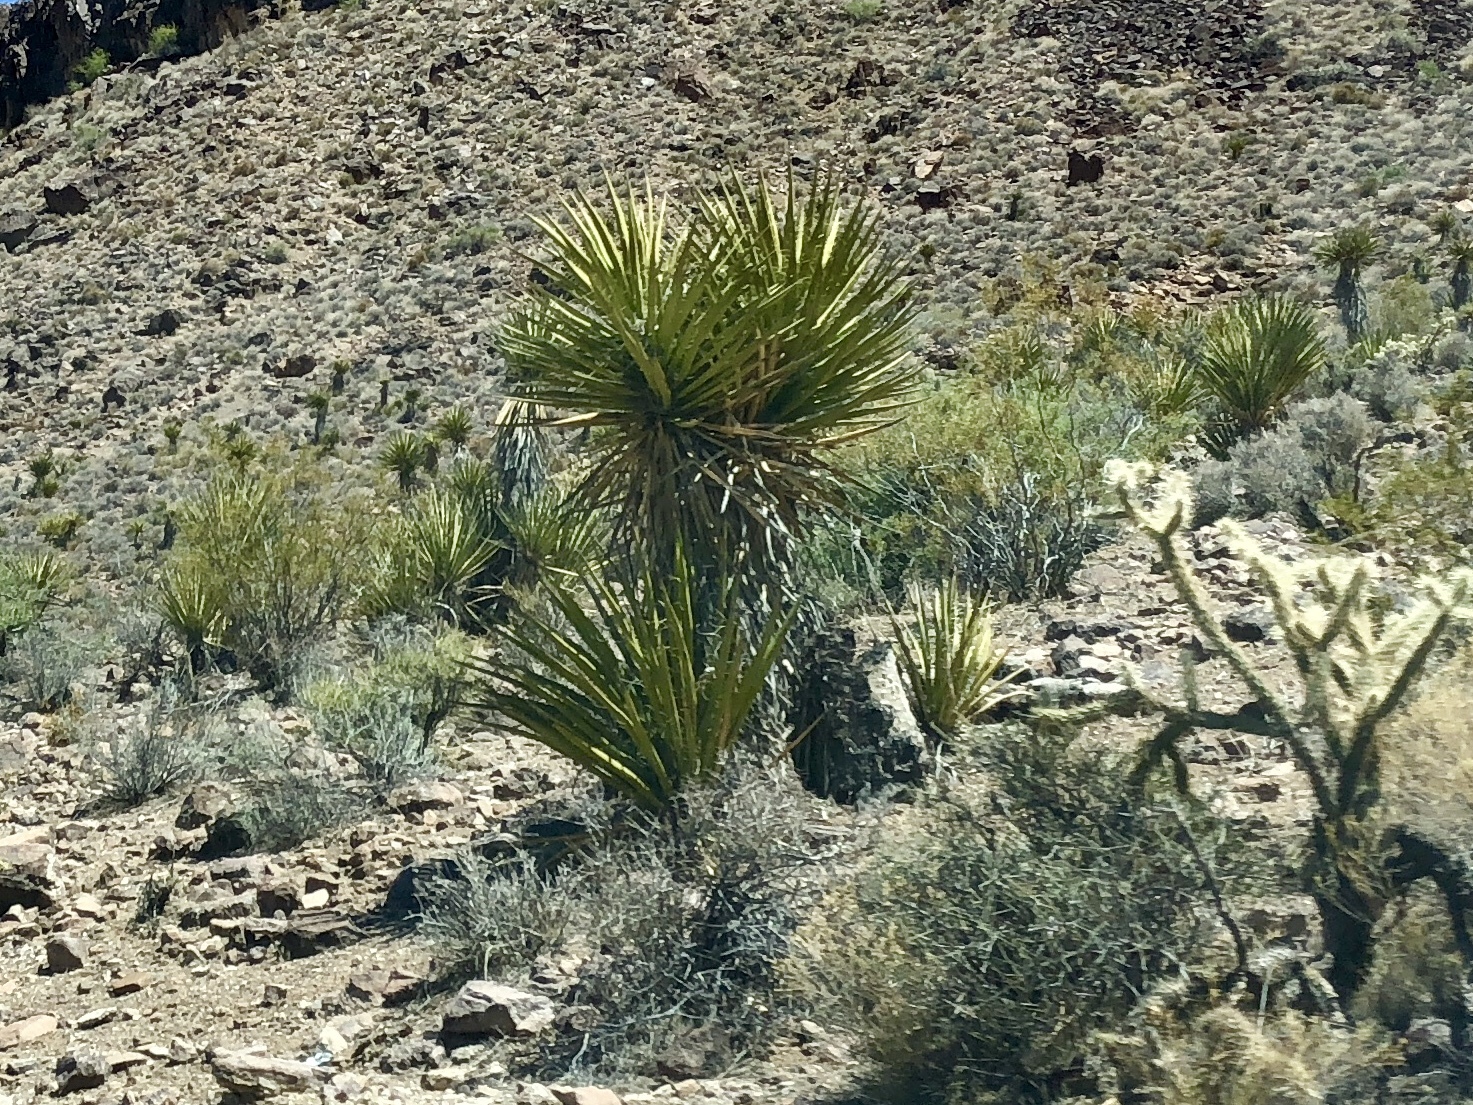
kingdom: Plantae
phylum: Tracheophyta
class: Liliopsida
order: Asparagales
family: Asparagaceae
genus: Yucca
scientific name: Yucca schidigera
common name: Mojave yucca
